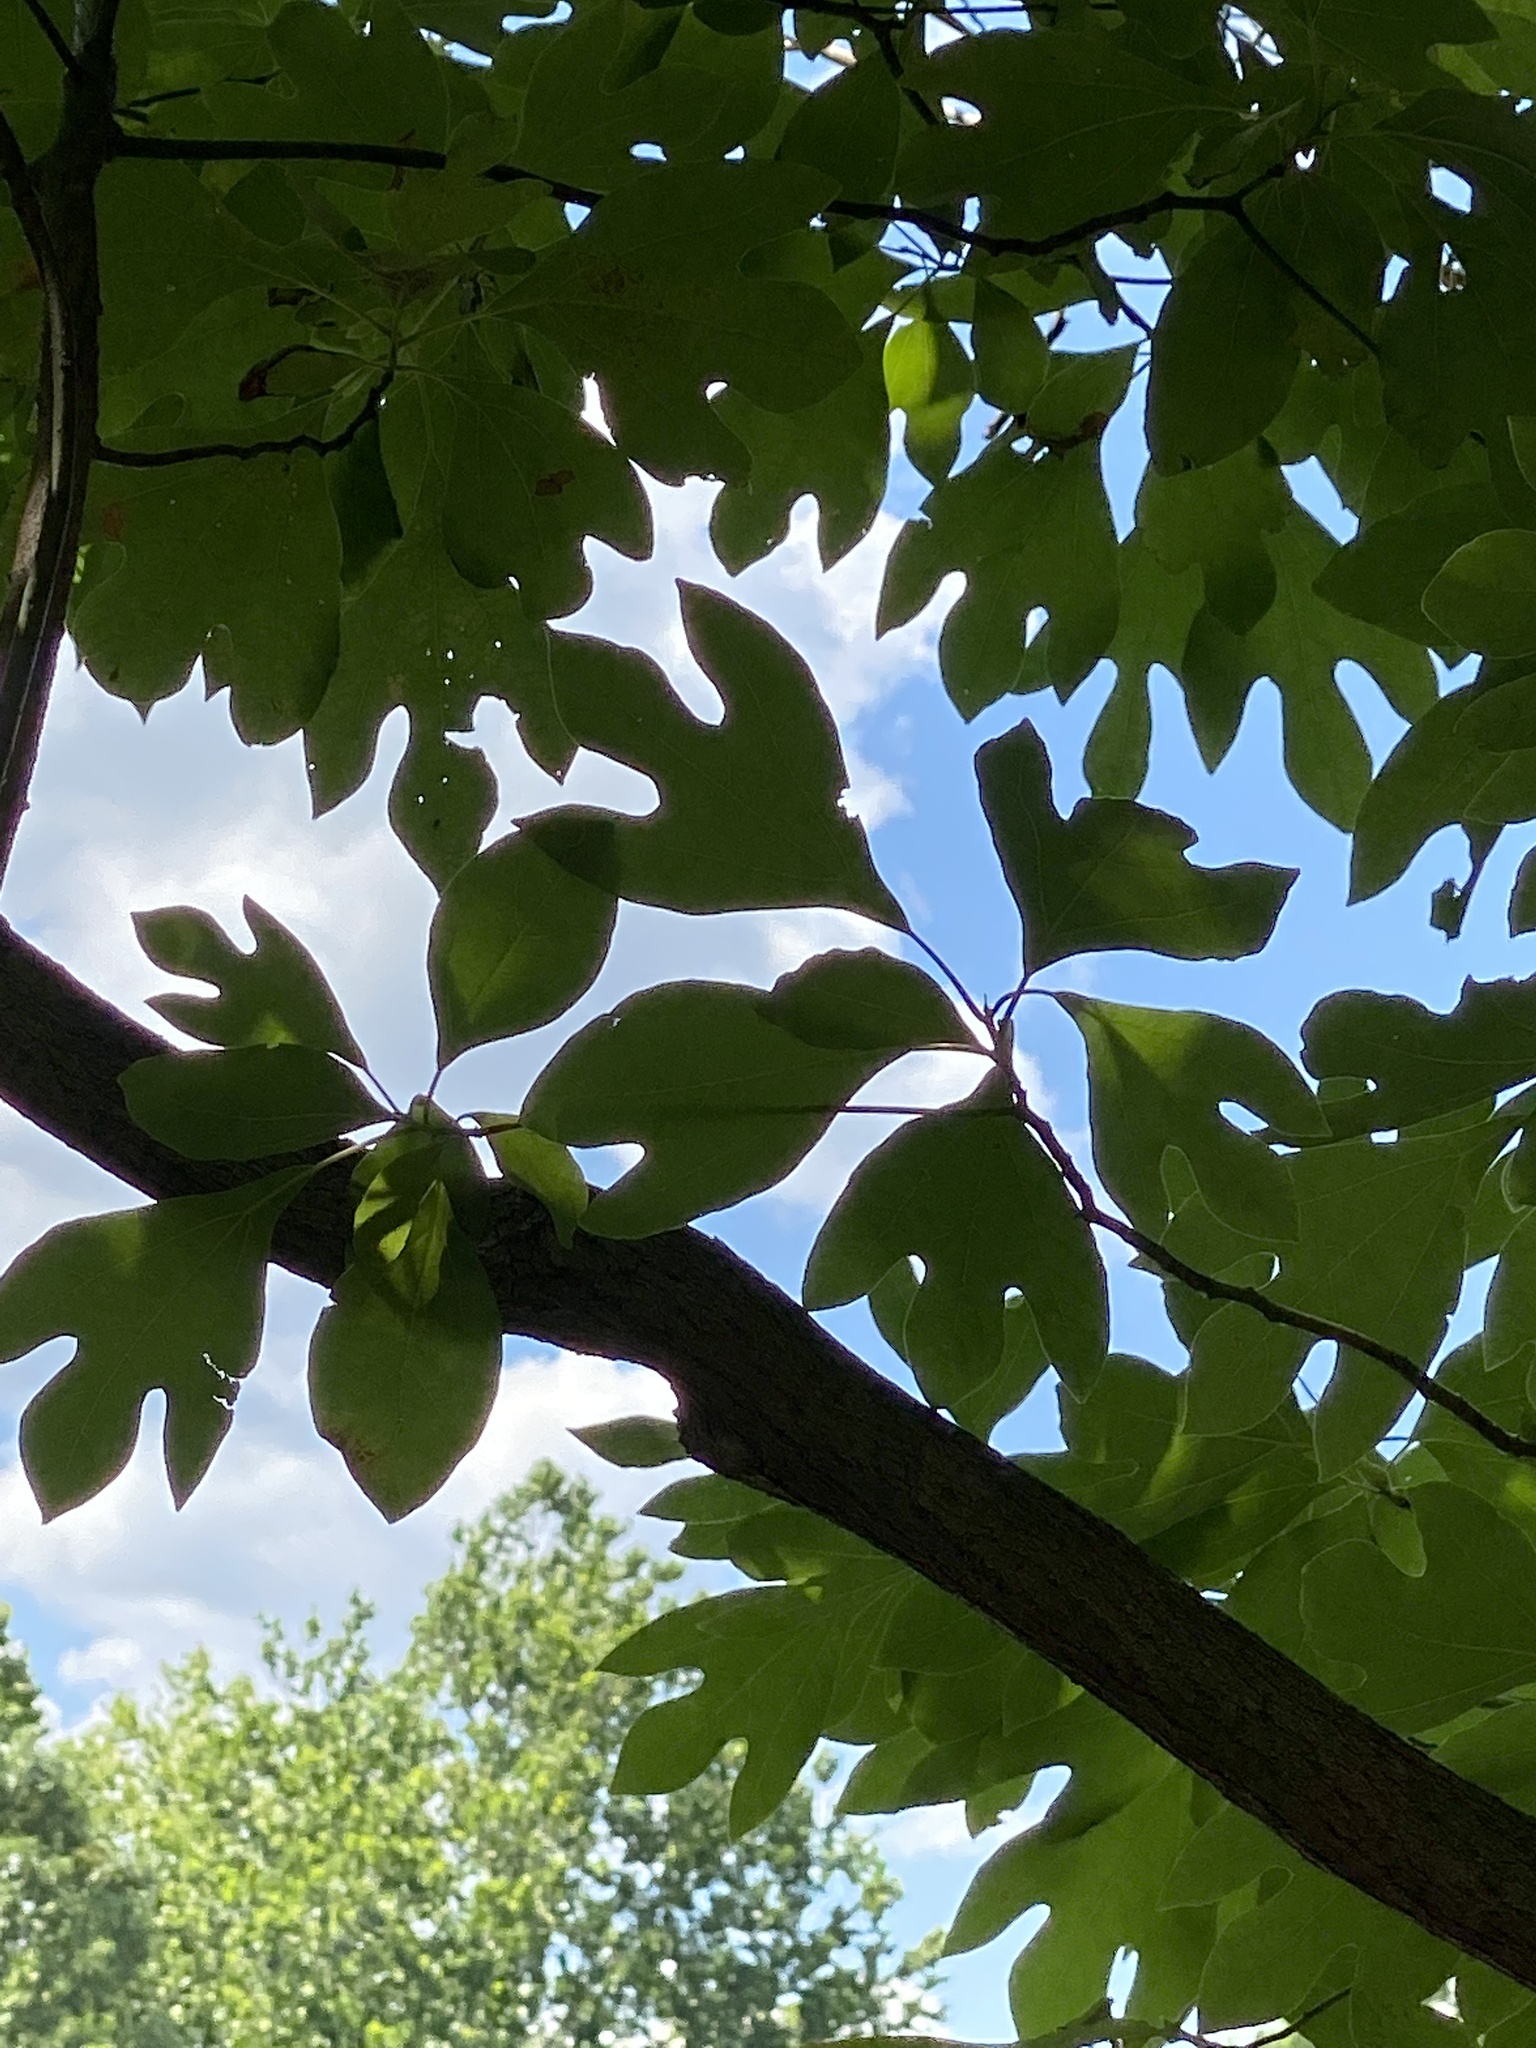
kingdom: Plantae
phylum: Tracheophyta
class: Magnoliopsida
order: Laurales
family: Lauraceae
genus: Sassafras
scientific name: Sassafras albidum
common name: Sassafras
